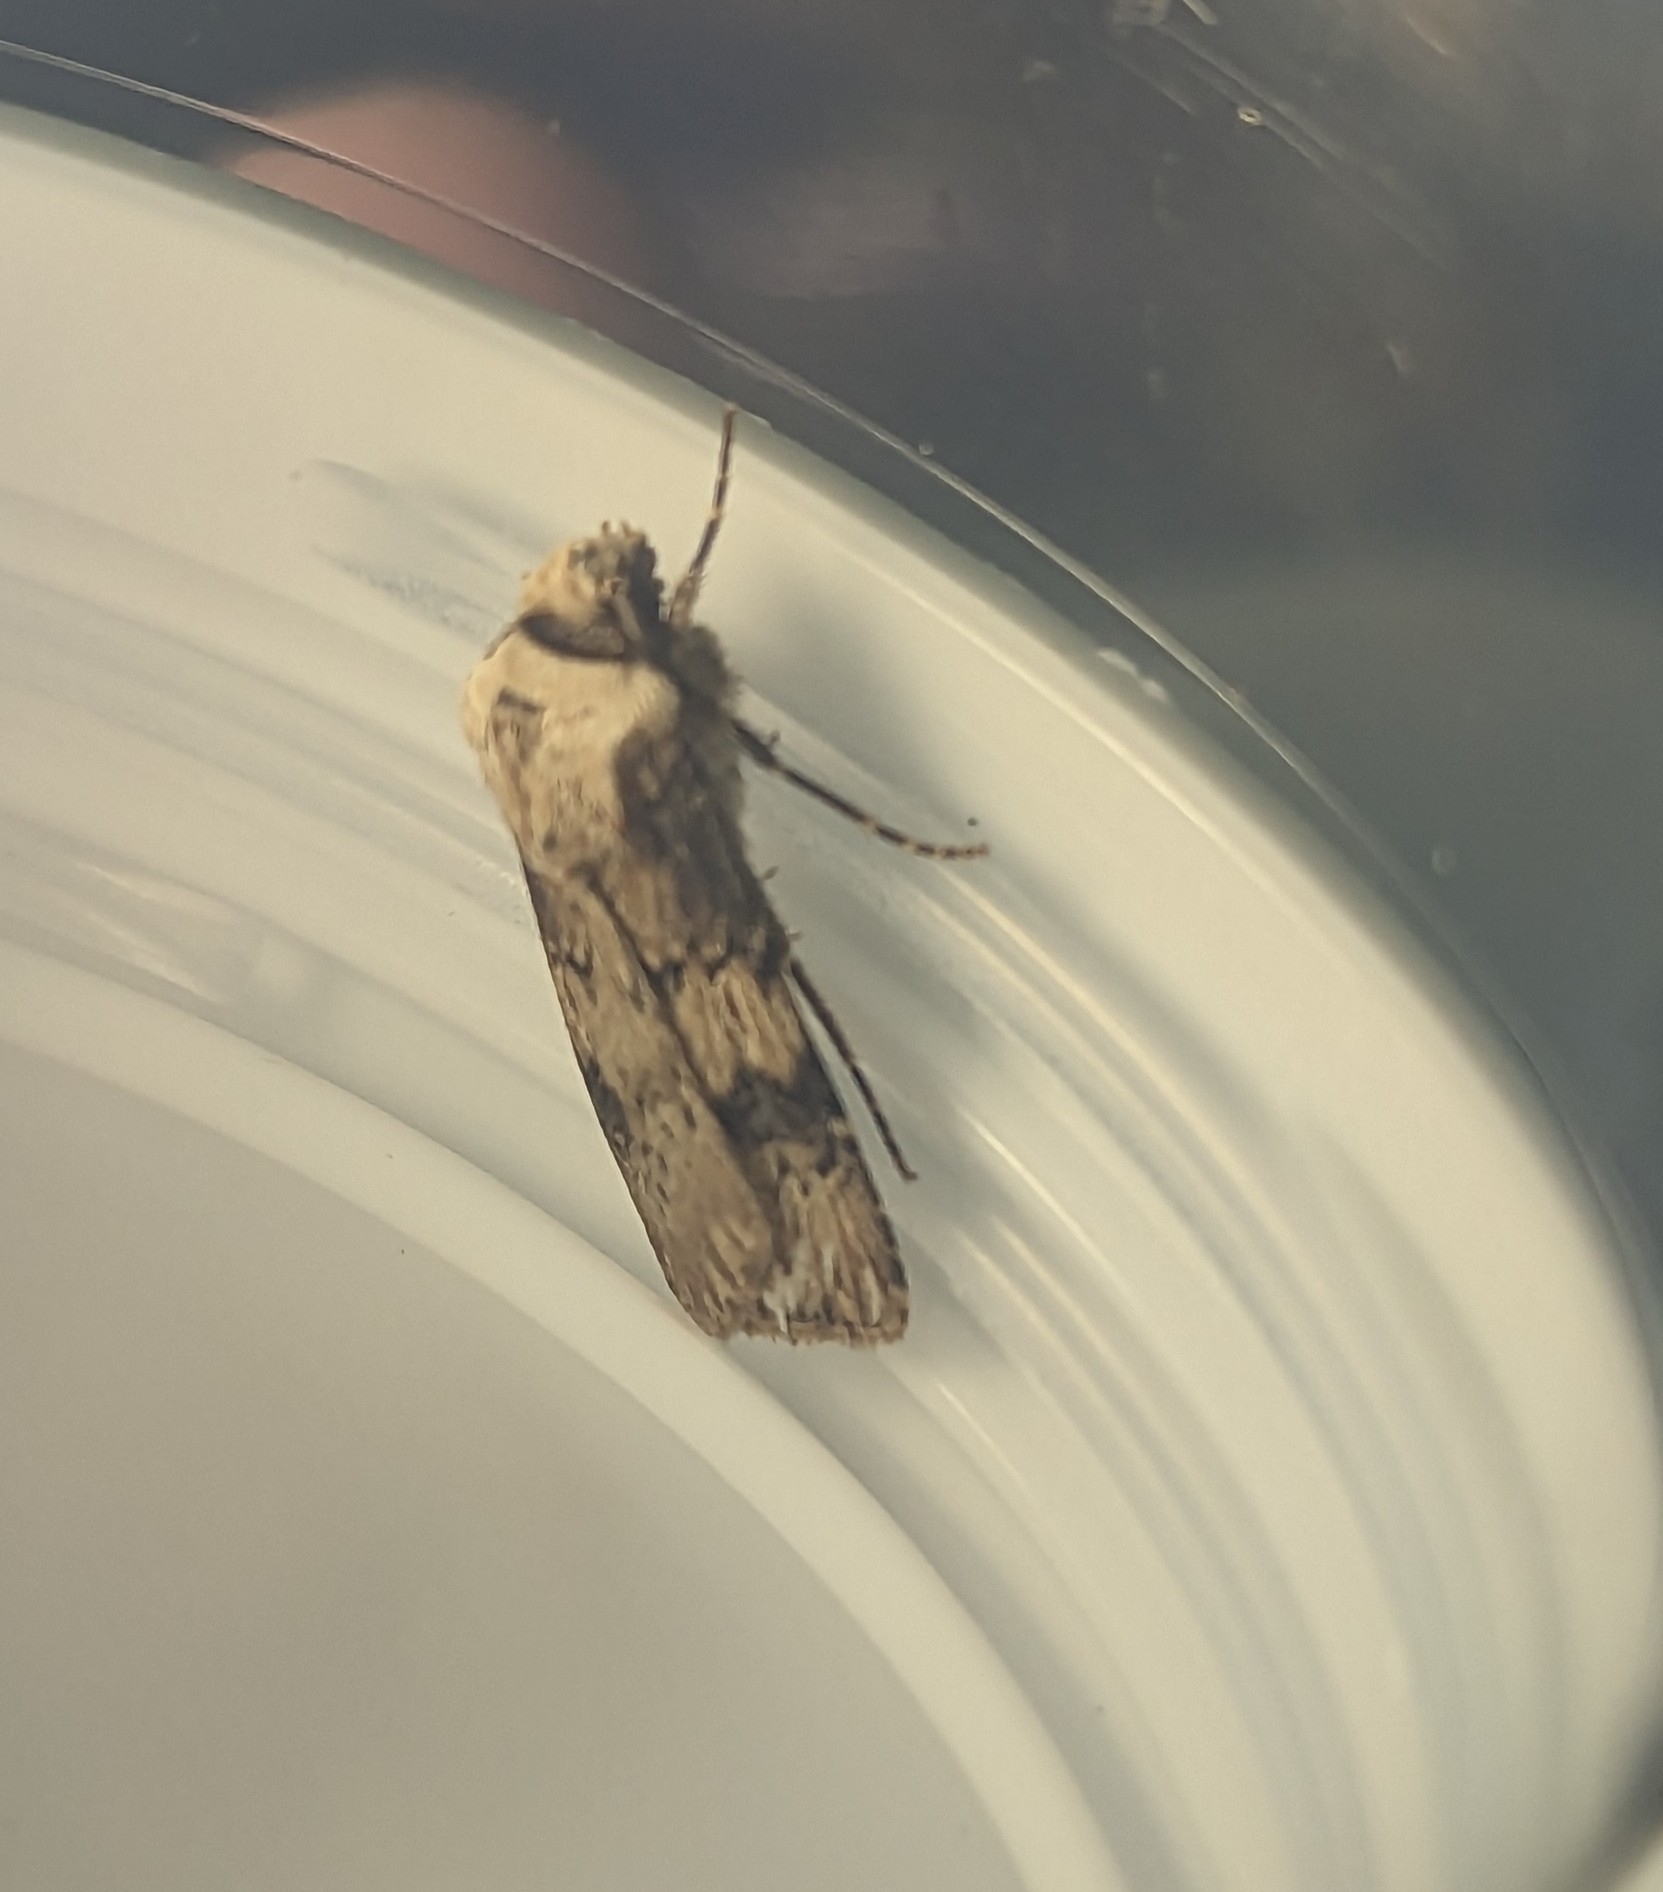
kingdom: Animalia
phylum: Arthropoda
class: Insecta
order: Lepidoptera
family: Noctuidae
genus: Agrotis
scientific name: Agrotis puta
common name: Shuttle-shaped dart
